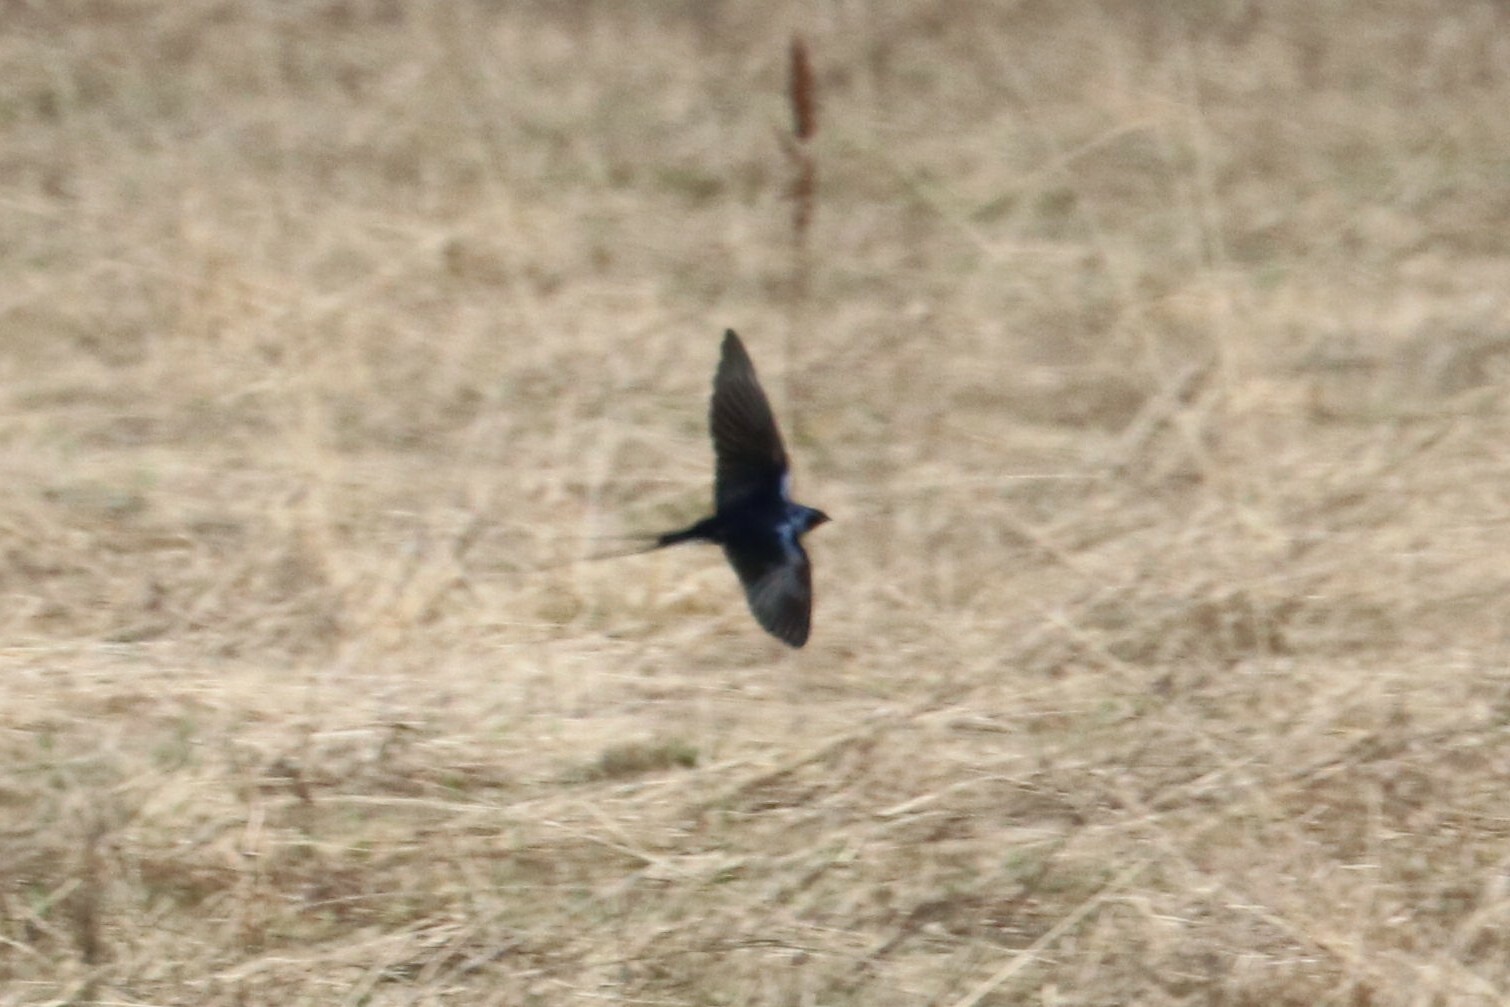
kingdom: Animalia
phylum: Chordata
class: Aves
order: Passeriformes
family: Hirundinidae
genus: Hirundo
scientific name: Hirundo rustica
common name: Barn swallow
